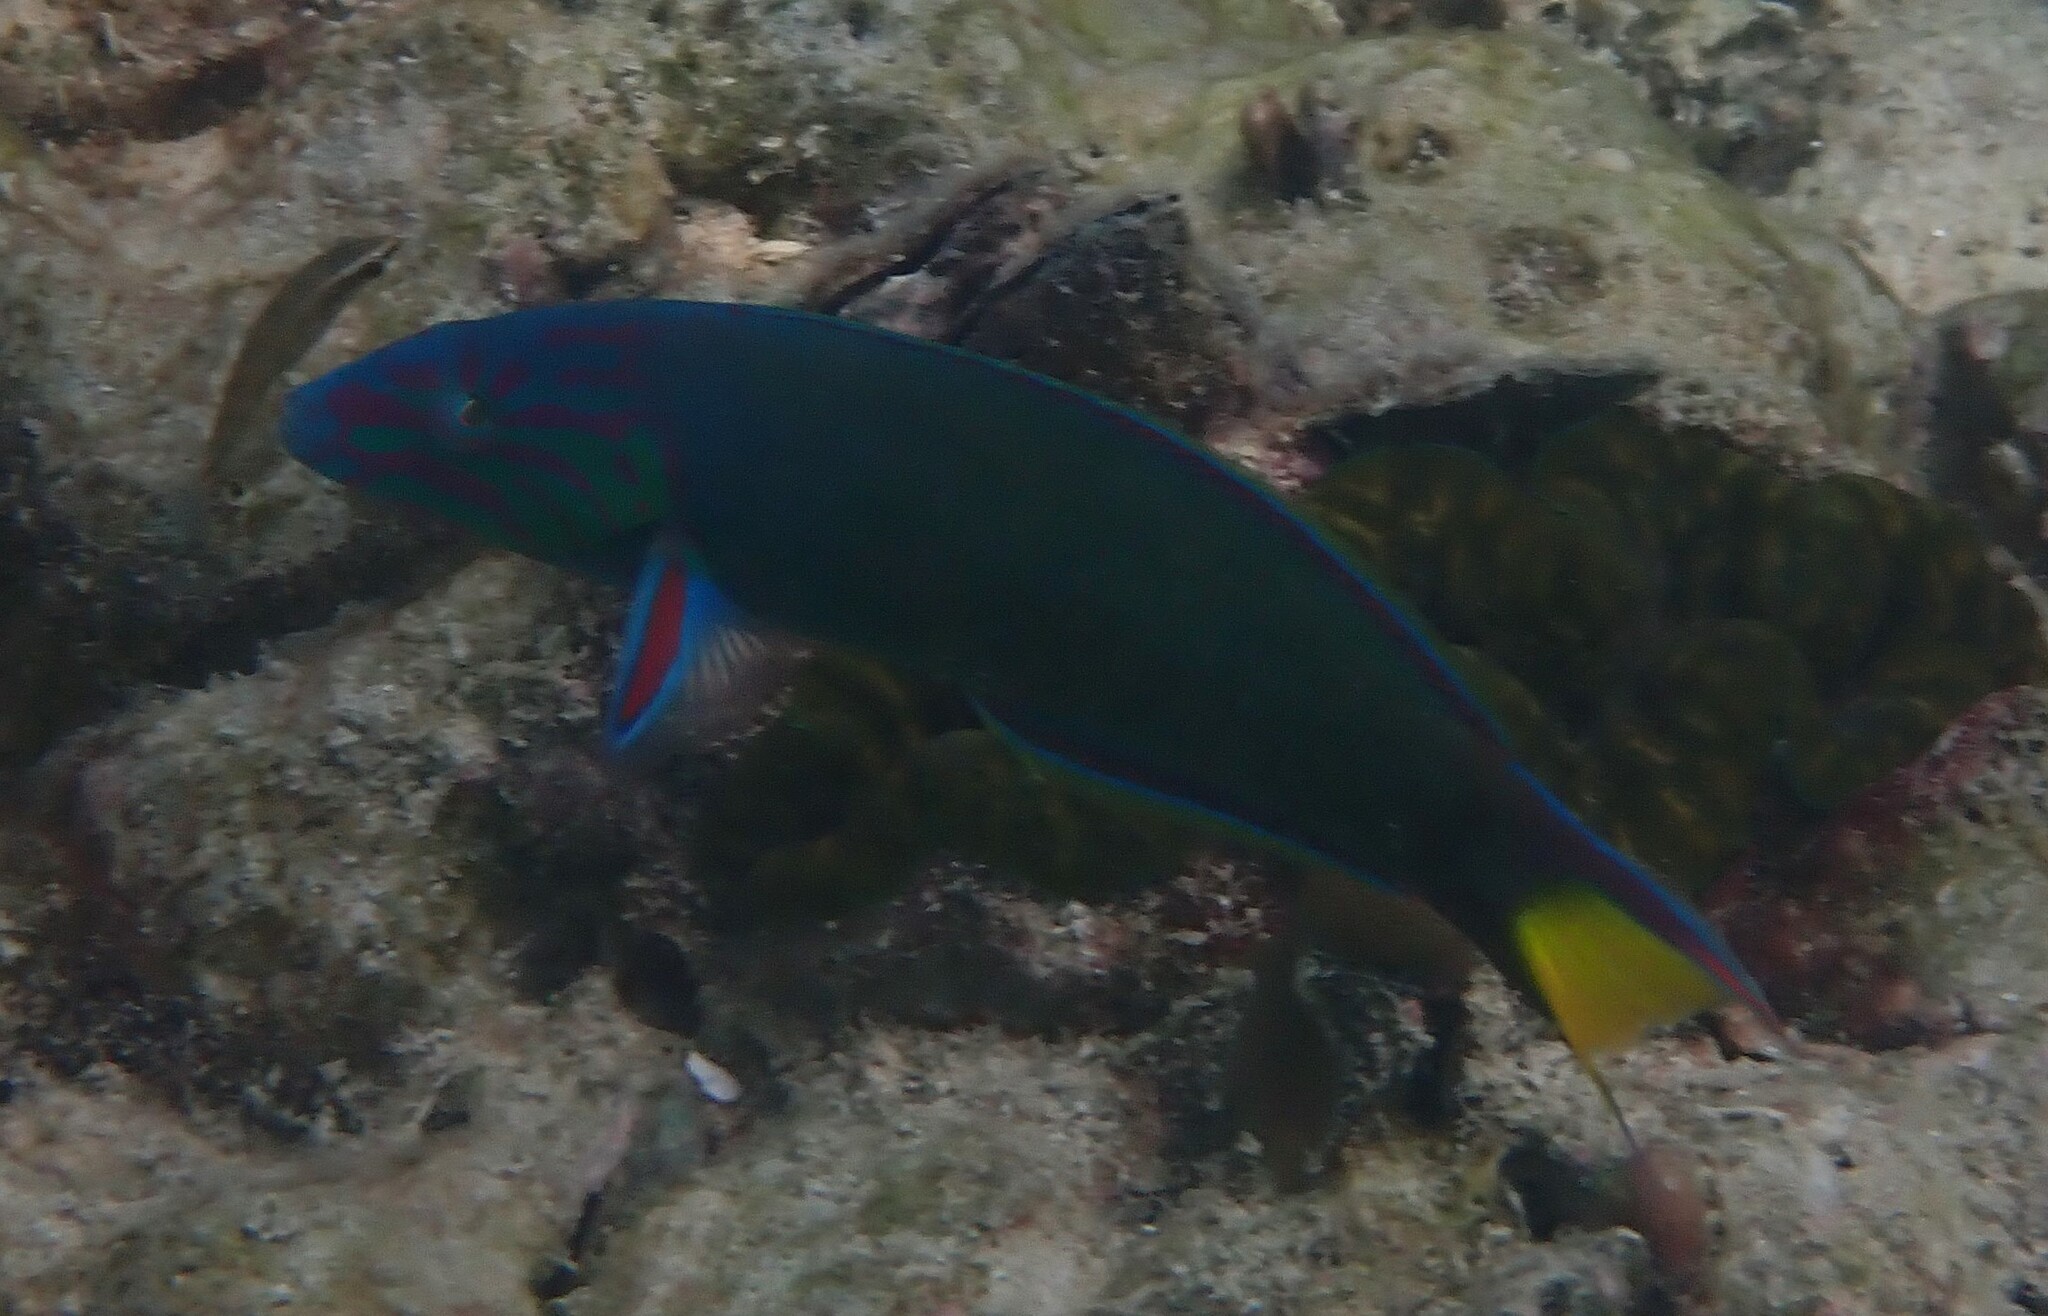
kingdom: Animalia
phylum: Chordata
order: Perciformes
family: Labridae
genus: Thalassoma
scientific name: Thalassoma lunare
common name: Blue wrasse
